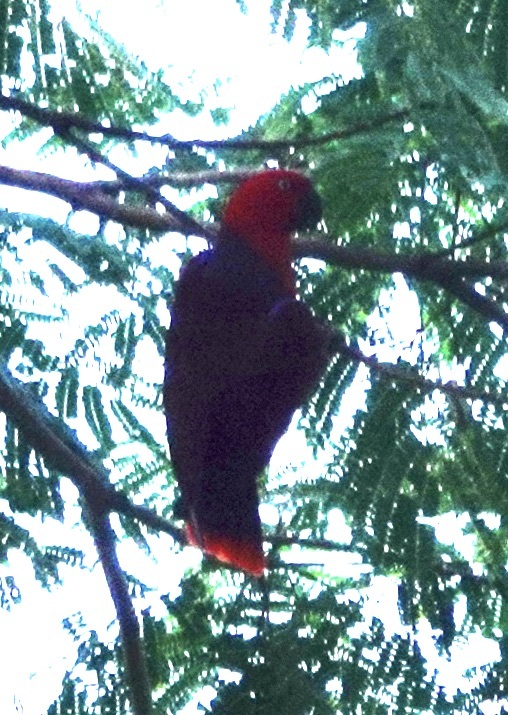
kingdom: Animalia
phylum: Chordata
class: Aves
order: Psittaciformes
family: Psittacidae
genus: Eclectus
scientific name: Eclectus roratus
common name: Eclectus parrot
